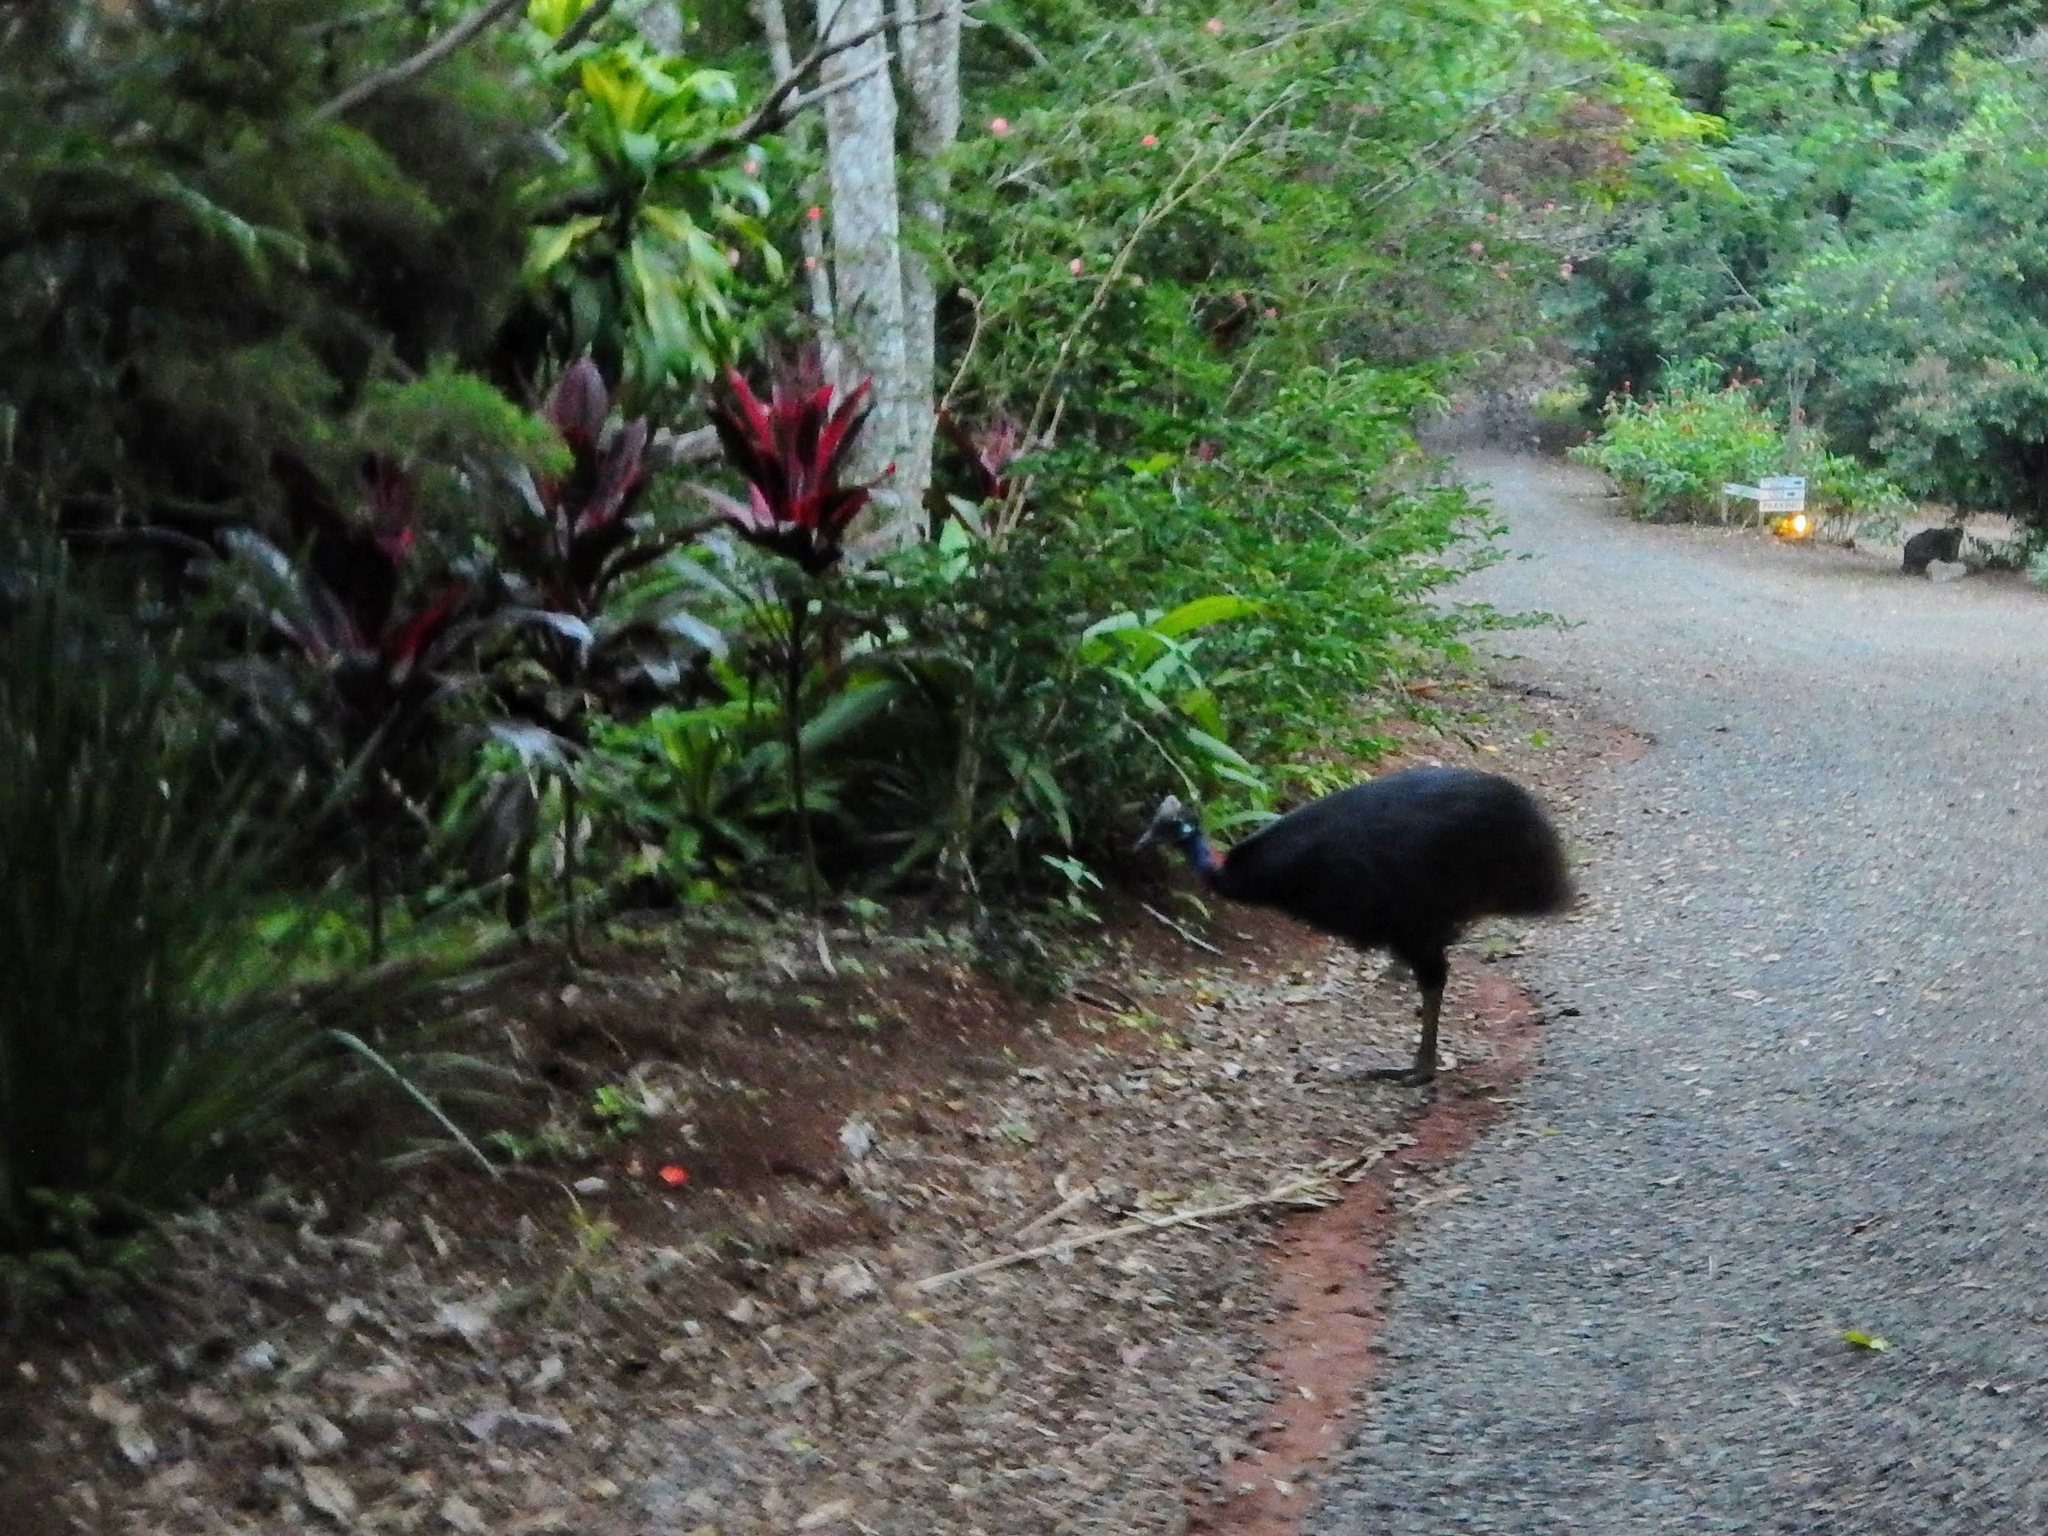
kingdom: Animalia
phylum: Chordata
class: Aves
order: Casuariiformes
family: Casuariidae
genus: Casuarius
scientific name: Casuarius casuarius
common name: Southern cassowary
